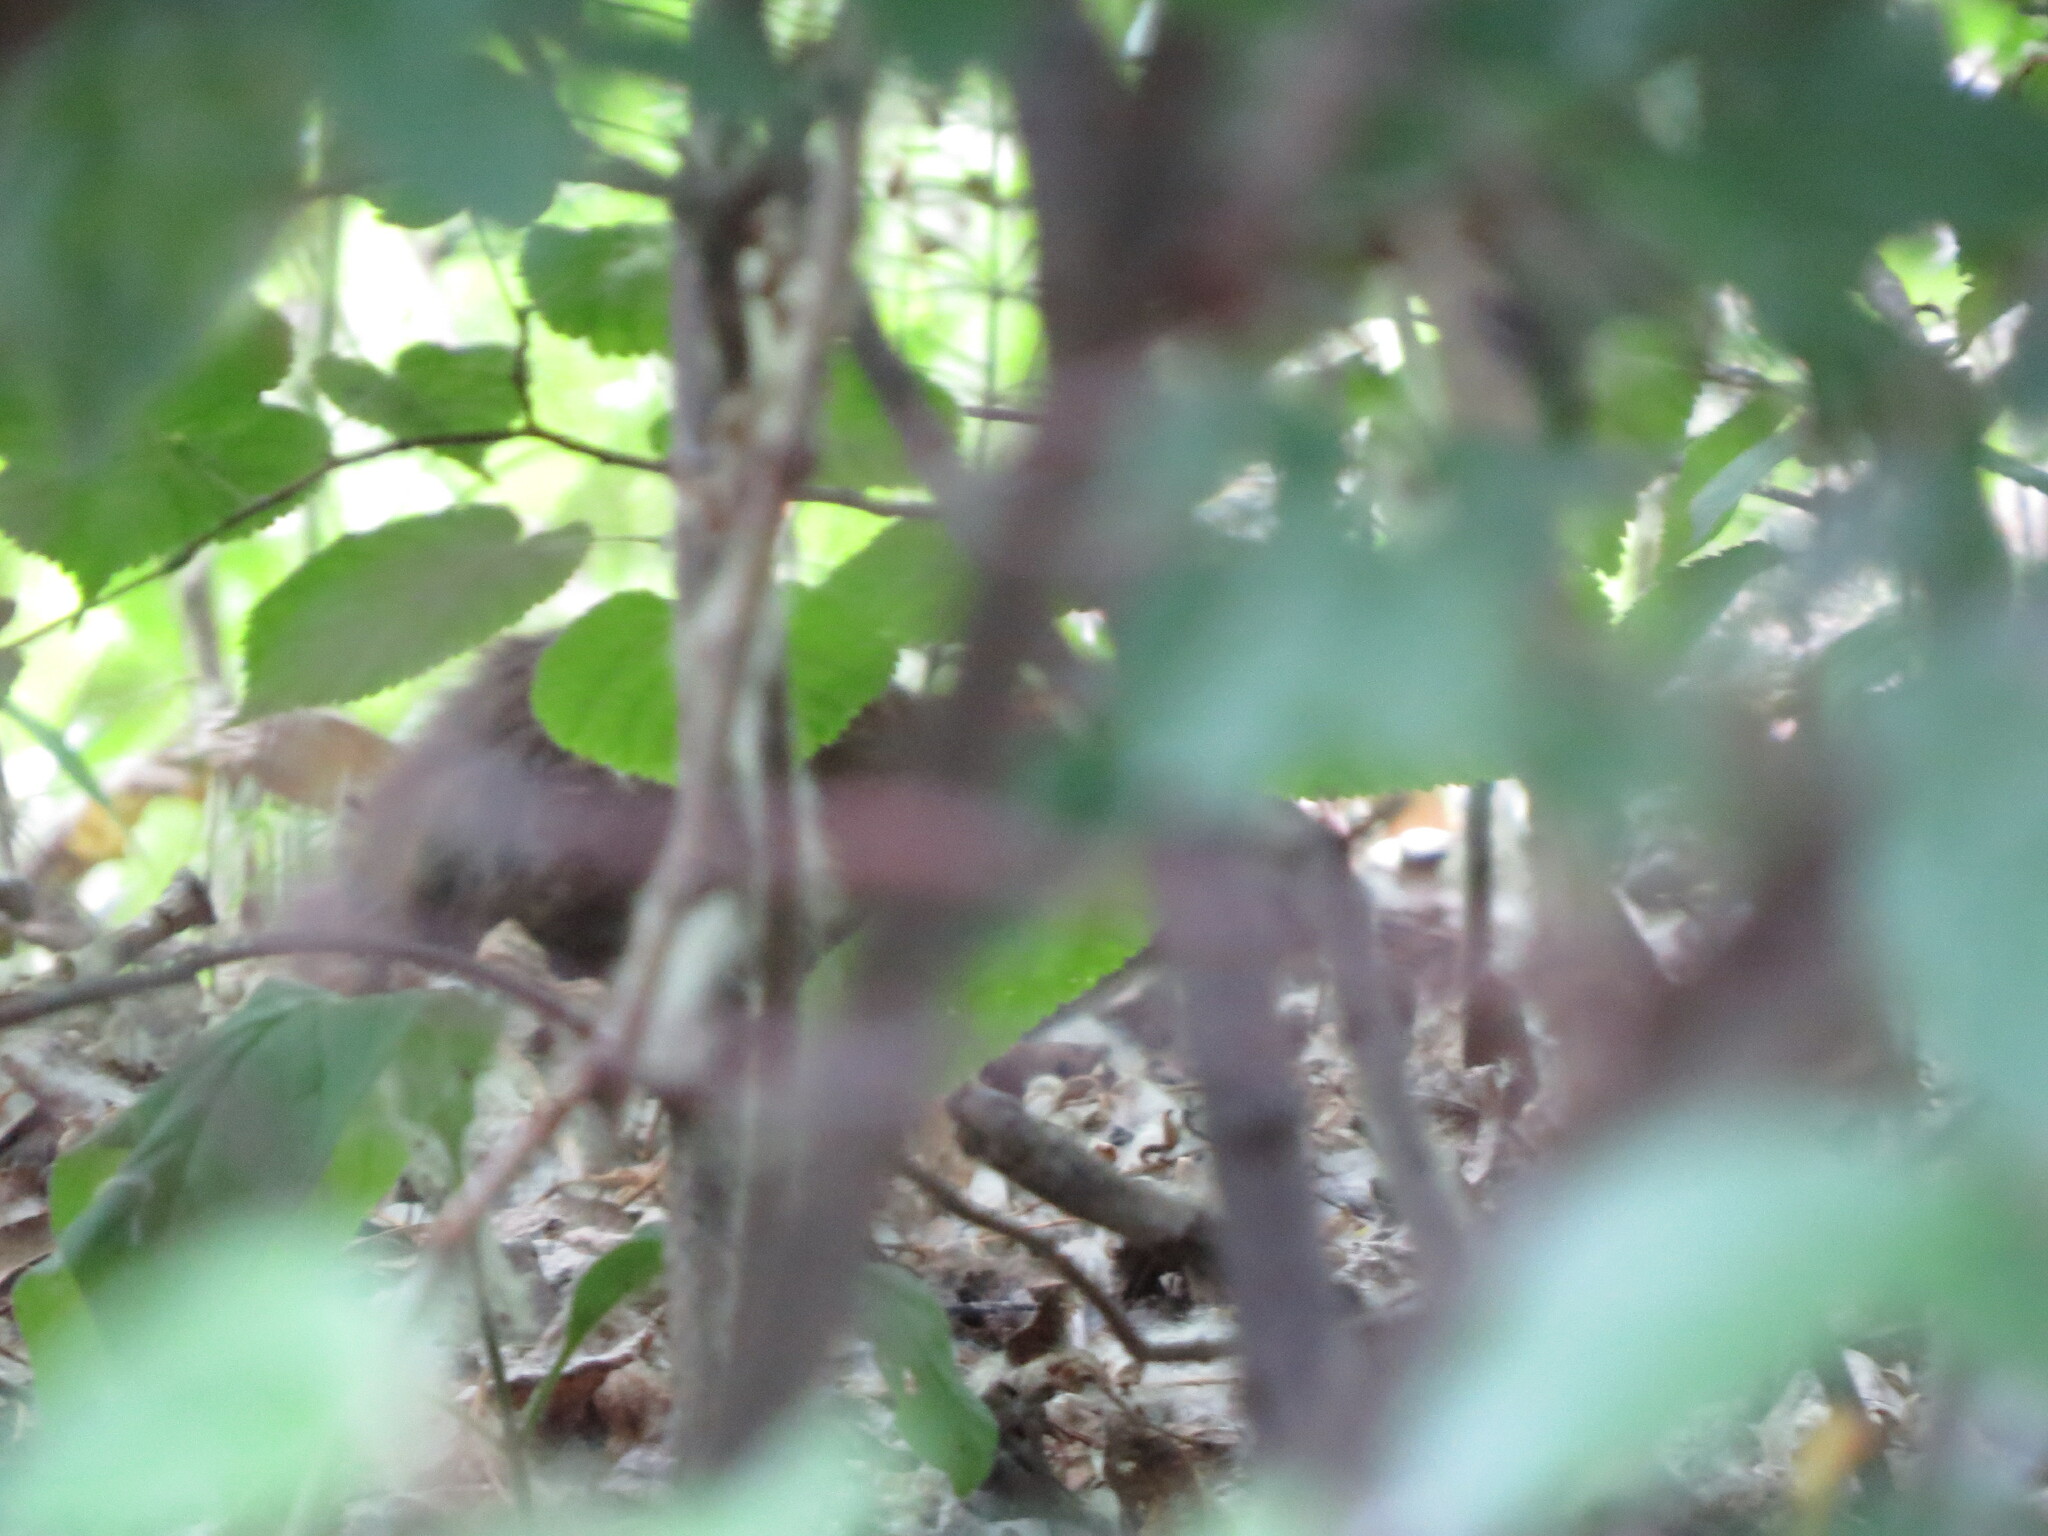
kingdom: Animalia
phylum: Chordata
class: Mammalia
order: Rodentia
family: Muridae
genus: Rattus
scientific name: Rattus norvegicus
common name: Brown rat
